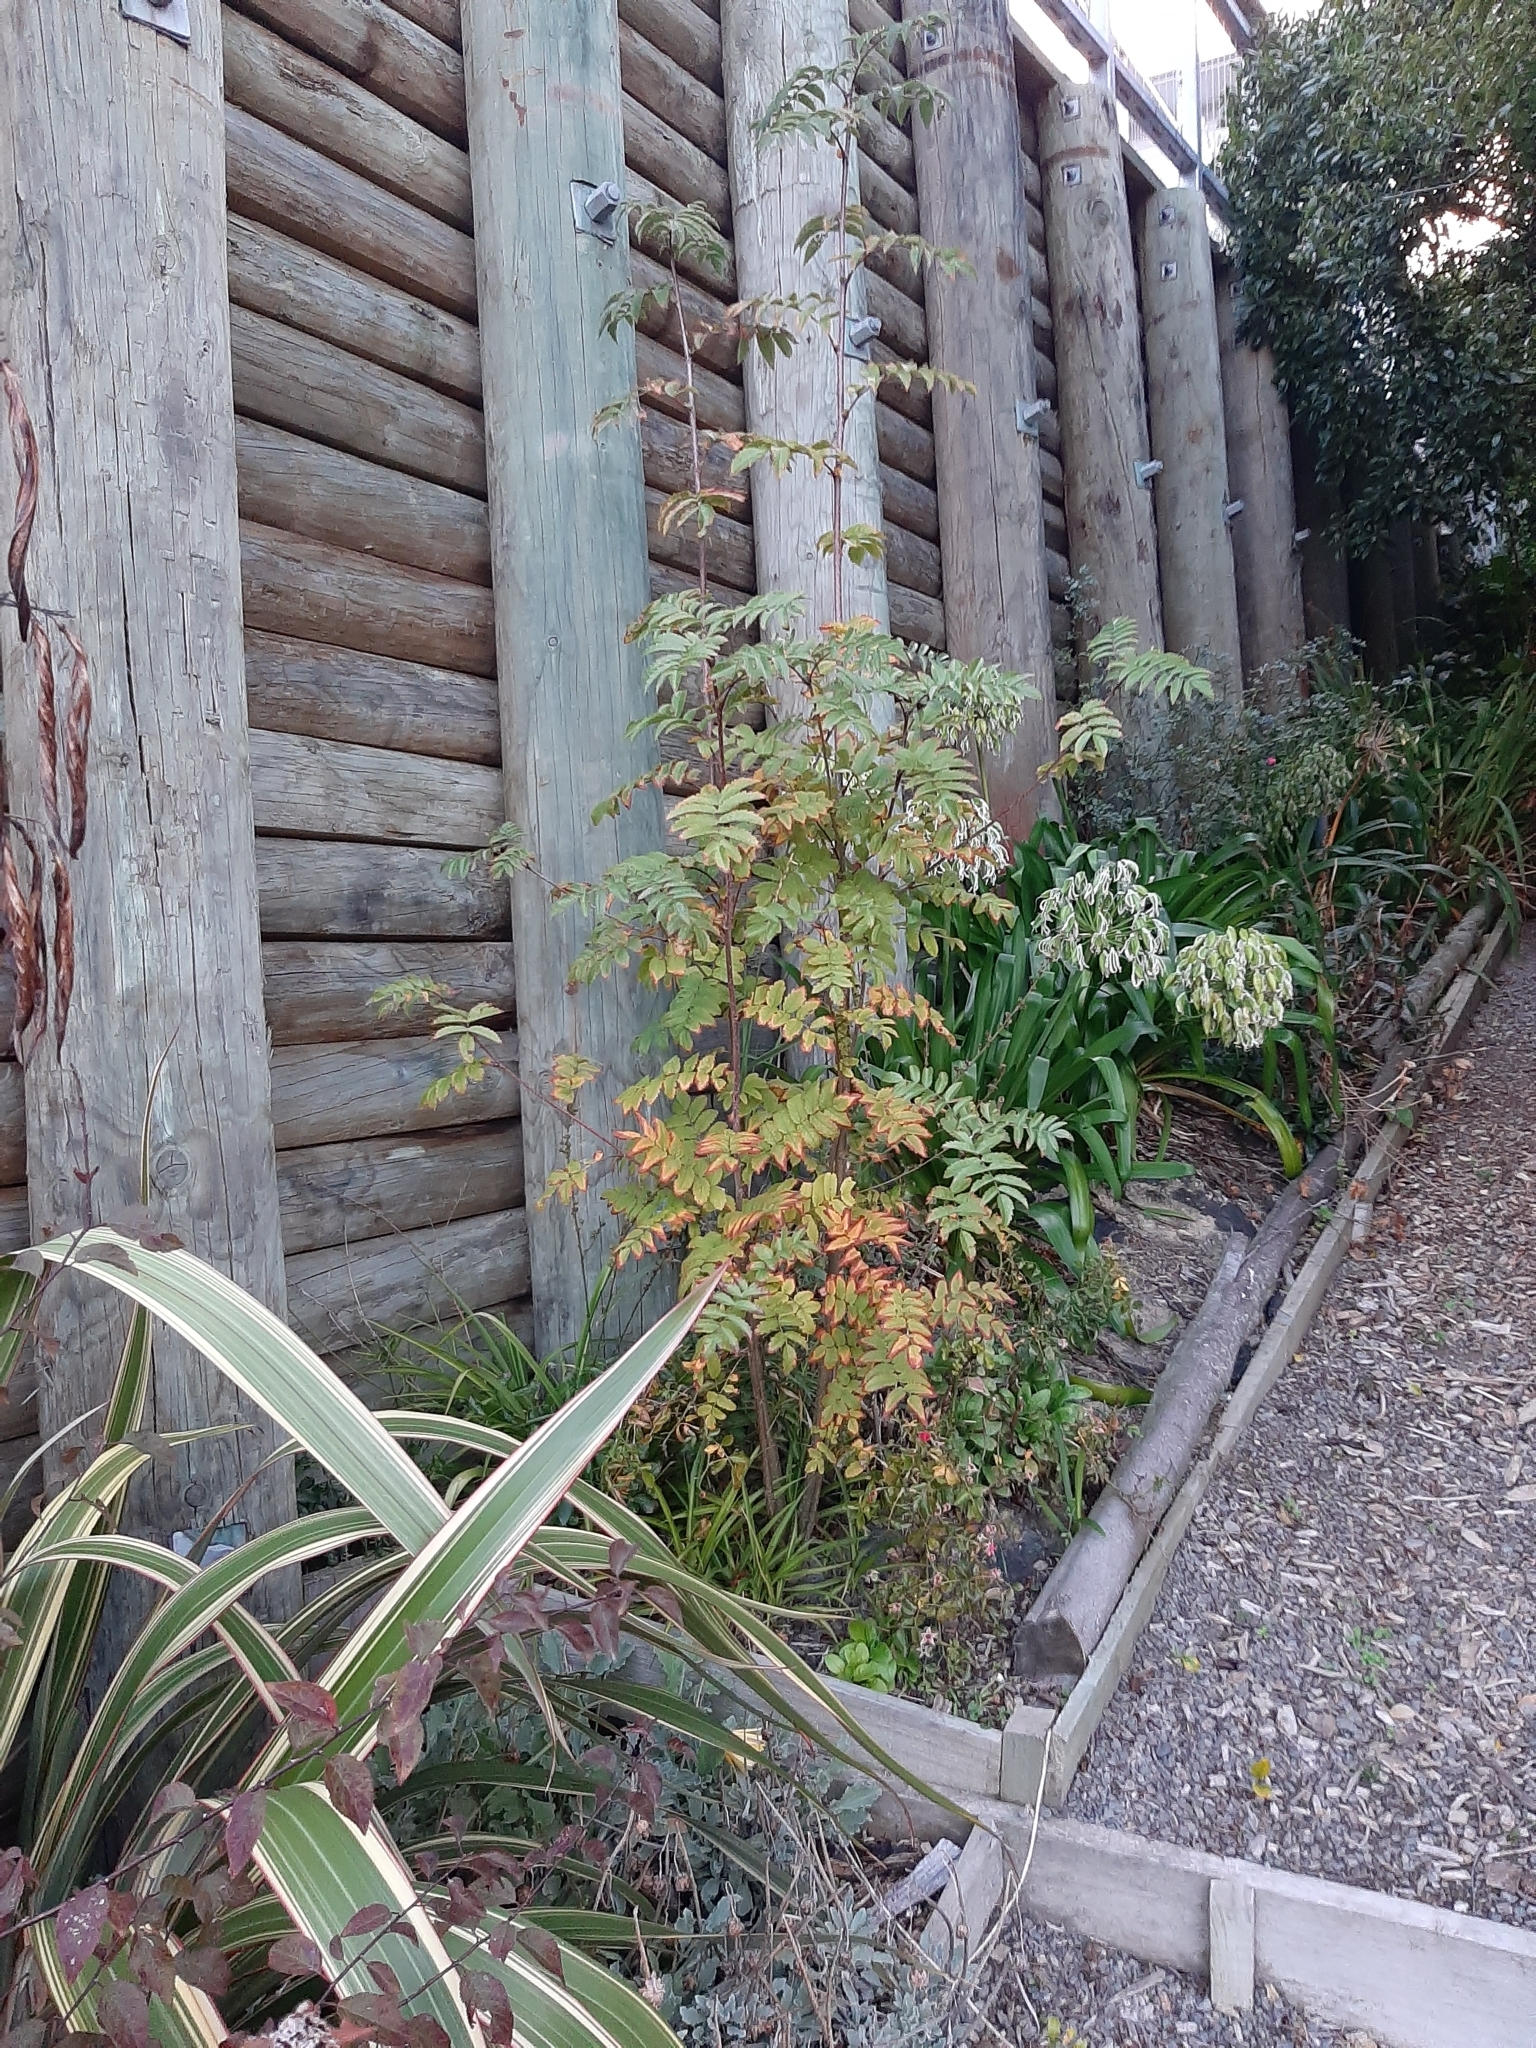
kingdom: Plantae
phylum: Tracheophyta
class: Magnoliopsida
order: Rosales
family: Rosaceae
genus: Sorbus
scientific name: Sorbus aucuparia
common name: Rowan
